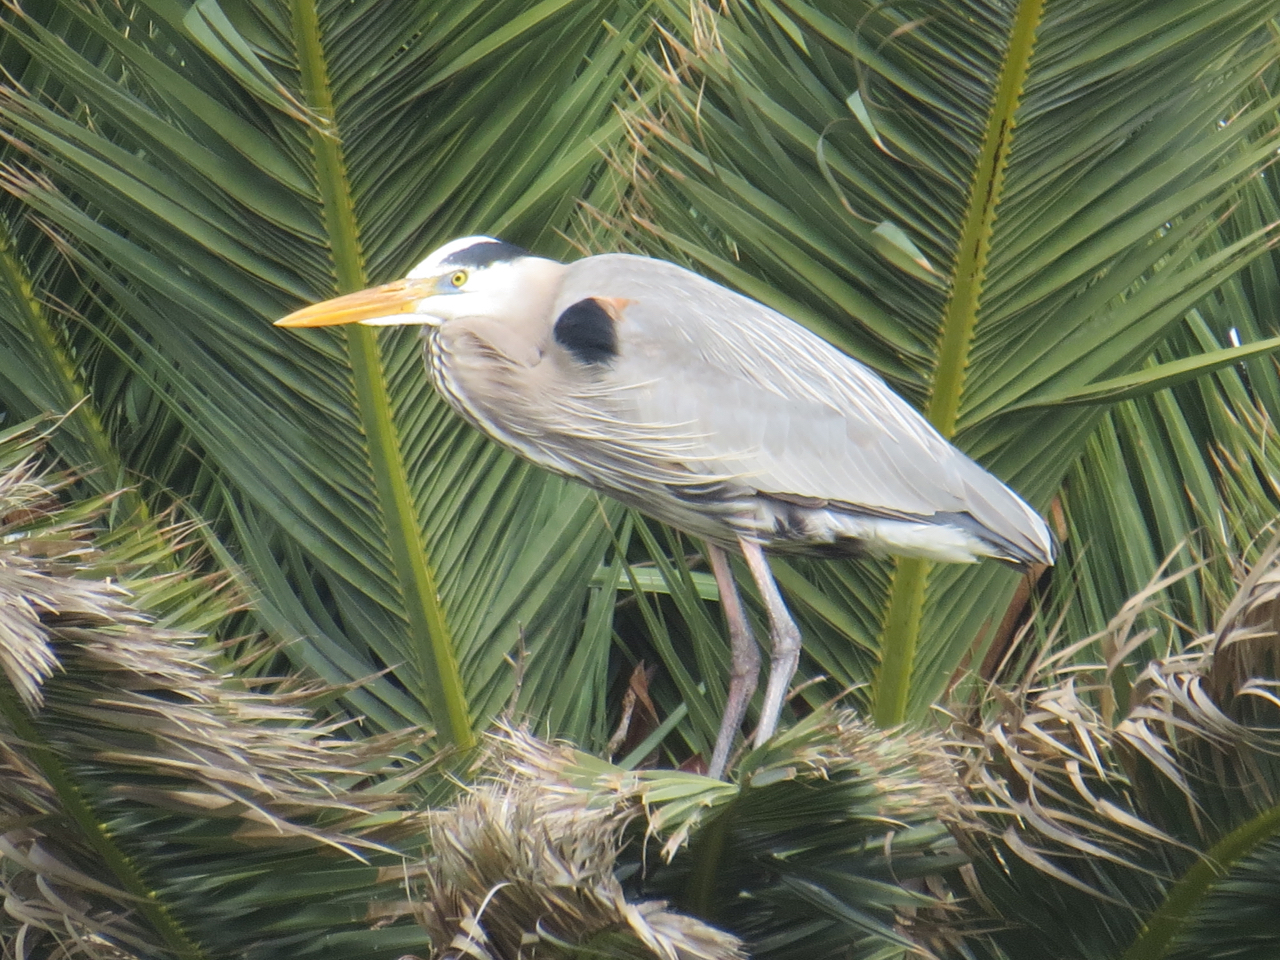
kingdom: Animalia
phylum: Chordata
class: Aves
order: Pelecaniformes
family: Ardeidae
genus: Ardea
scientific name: Ardea herodias
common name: Great blue heron
